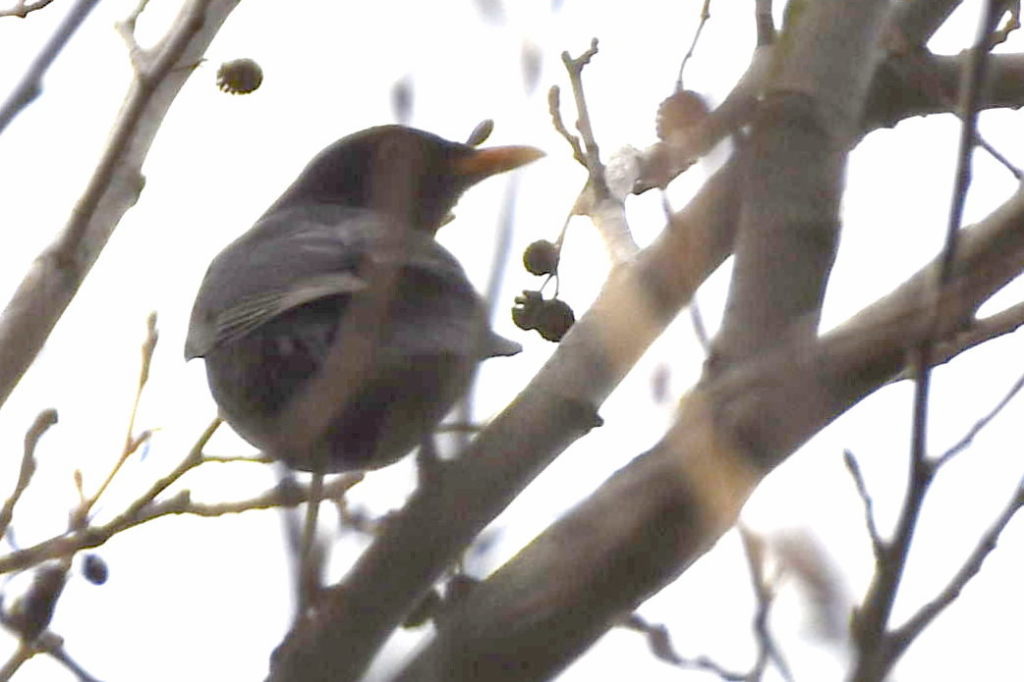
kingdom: Animalia
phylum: Chordata
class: Aves
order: Passeriformes
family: Turdidae
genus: Turdus
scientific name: Turdus merula
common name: Common blackbird
